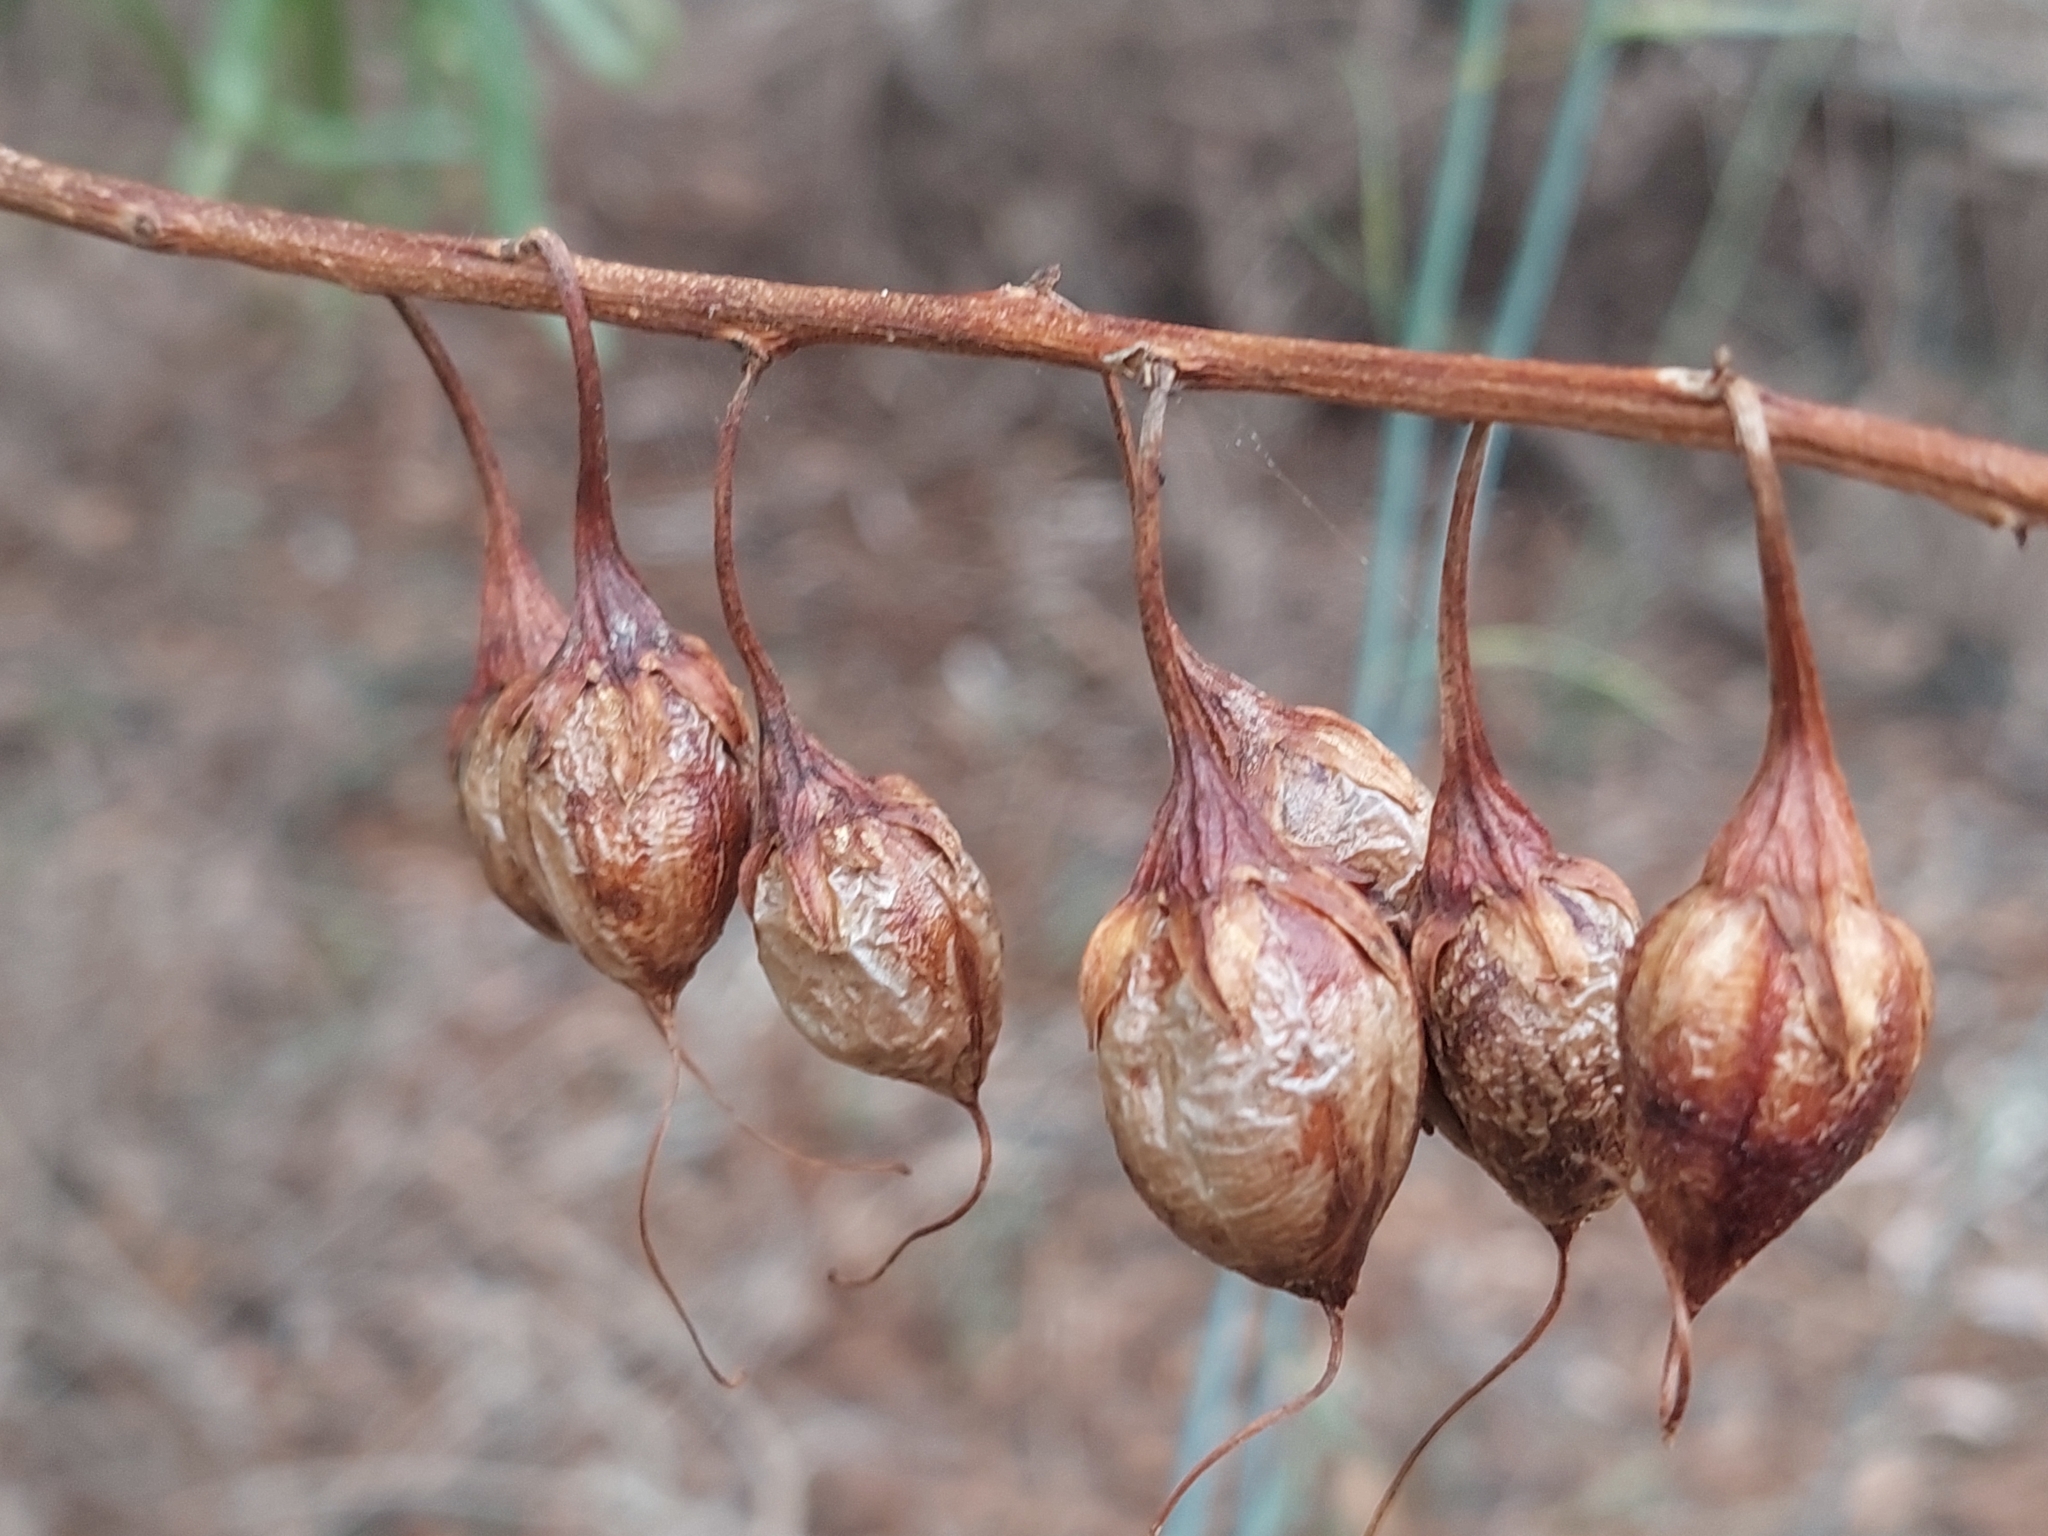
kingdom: Plantae
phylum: Tracheophyta
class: Magnoliopsida
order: Lamiales
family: Scrophulariaceae
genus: Eremophila
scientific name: Eremophila bignoniiflora
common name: Bignonia emu-bush
